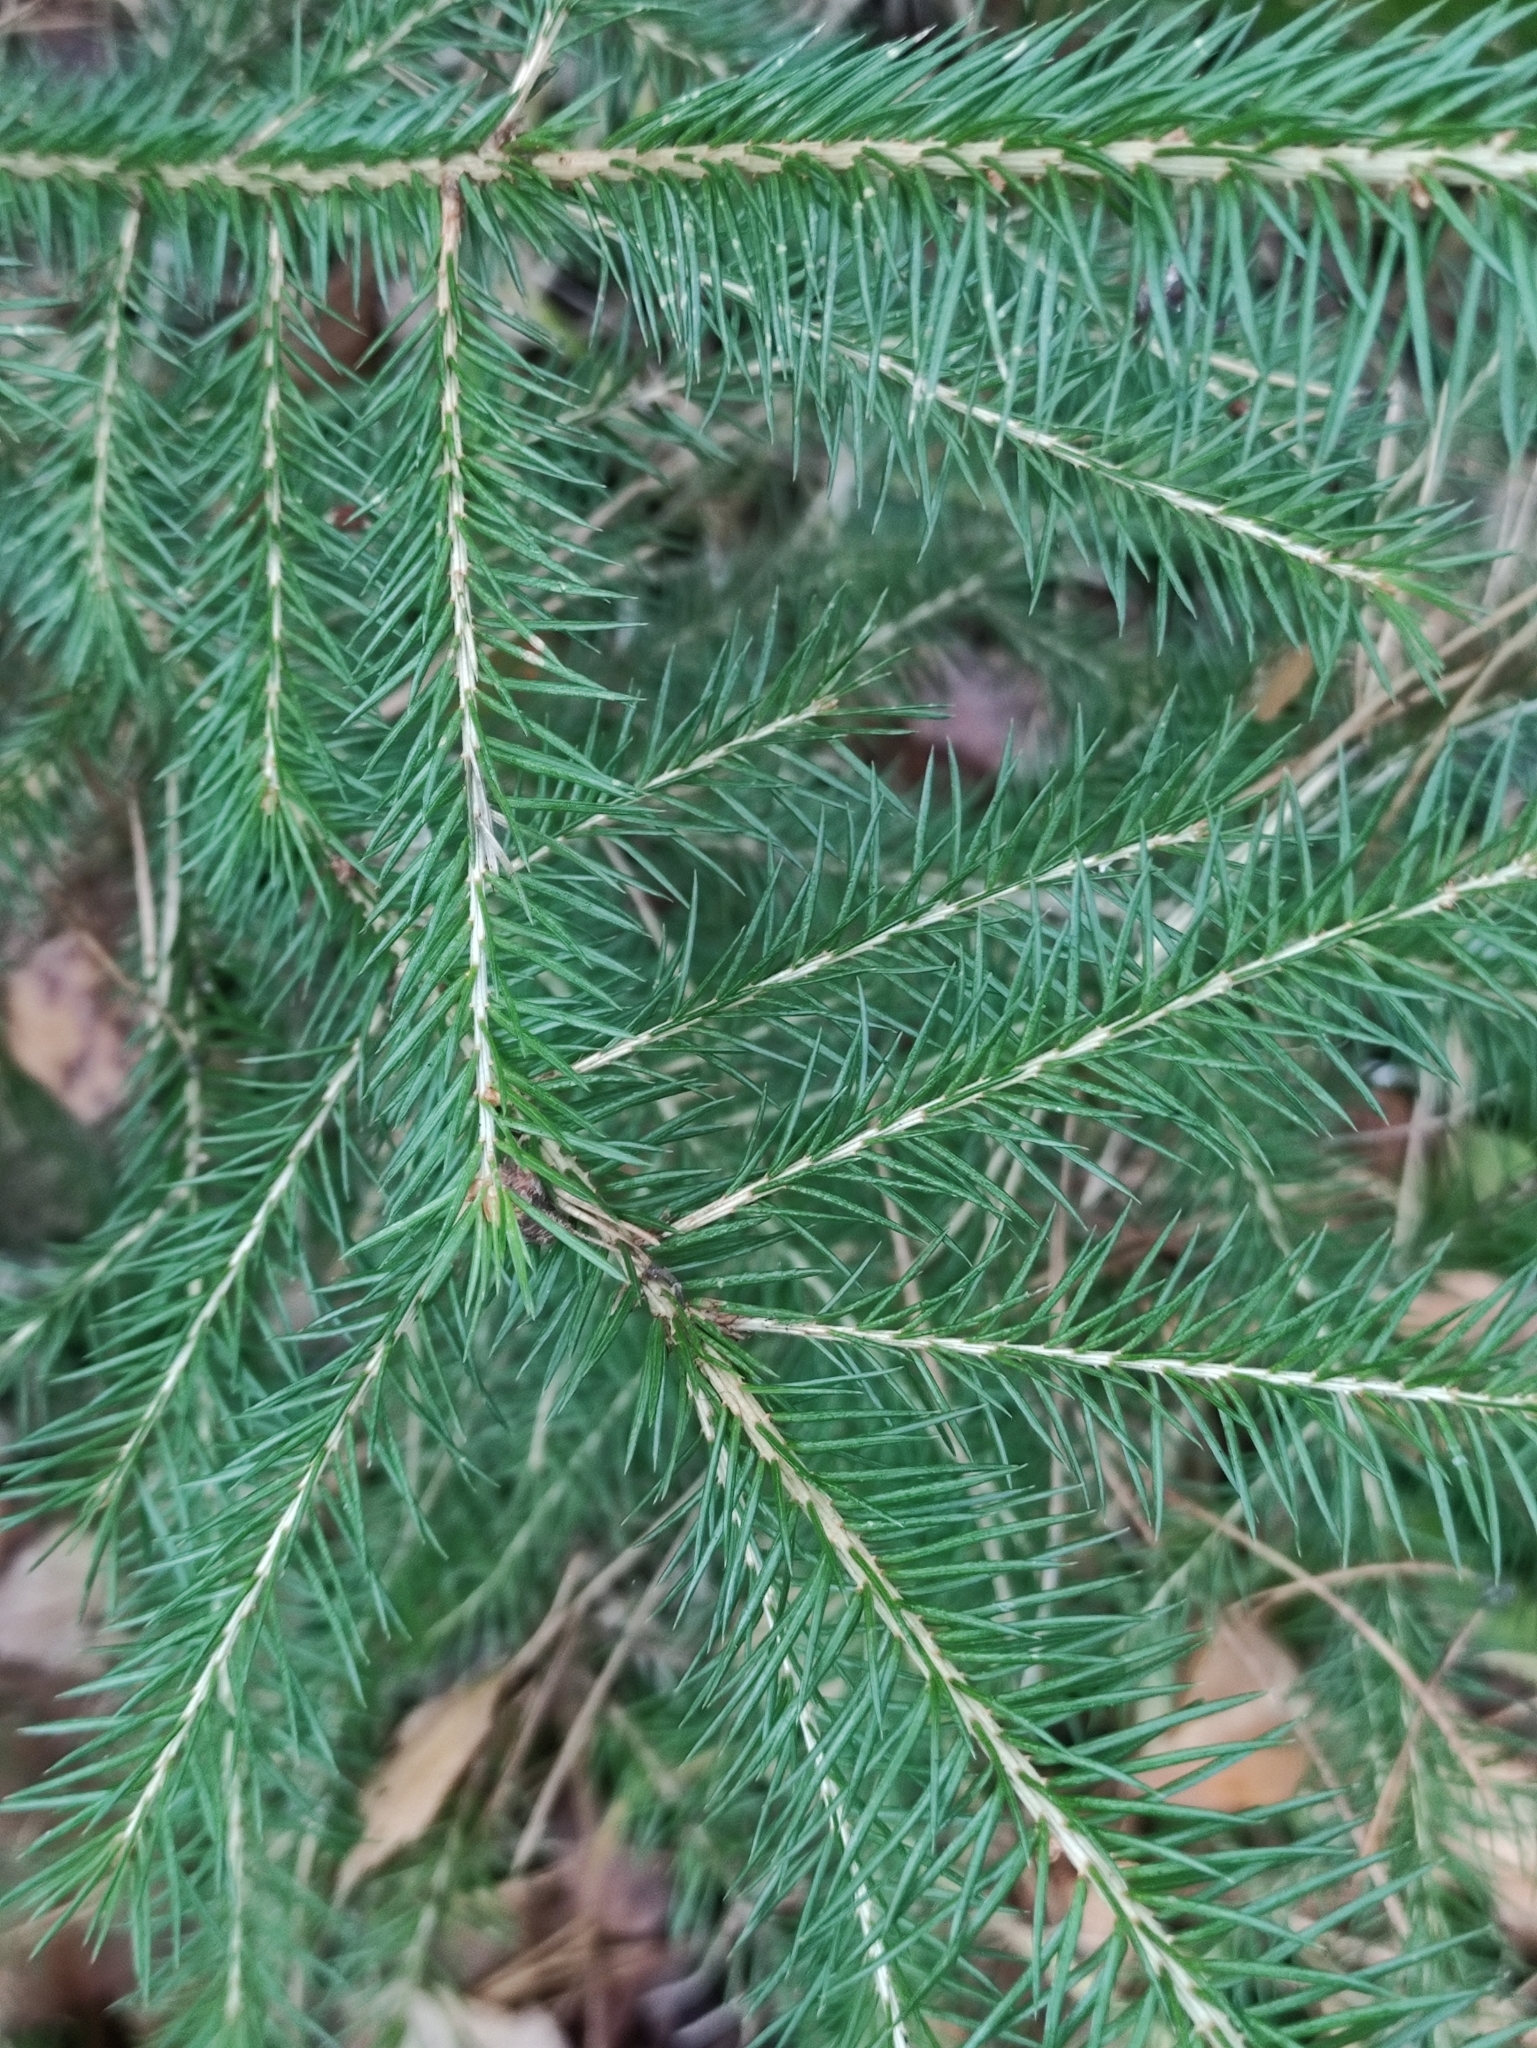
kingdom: Plantae
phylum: Tracheophyta
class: Pinopsida
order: Pinales
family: Pinaceae
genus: Picea
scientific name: Picea abies
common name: Norway spruce
